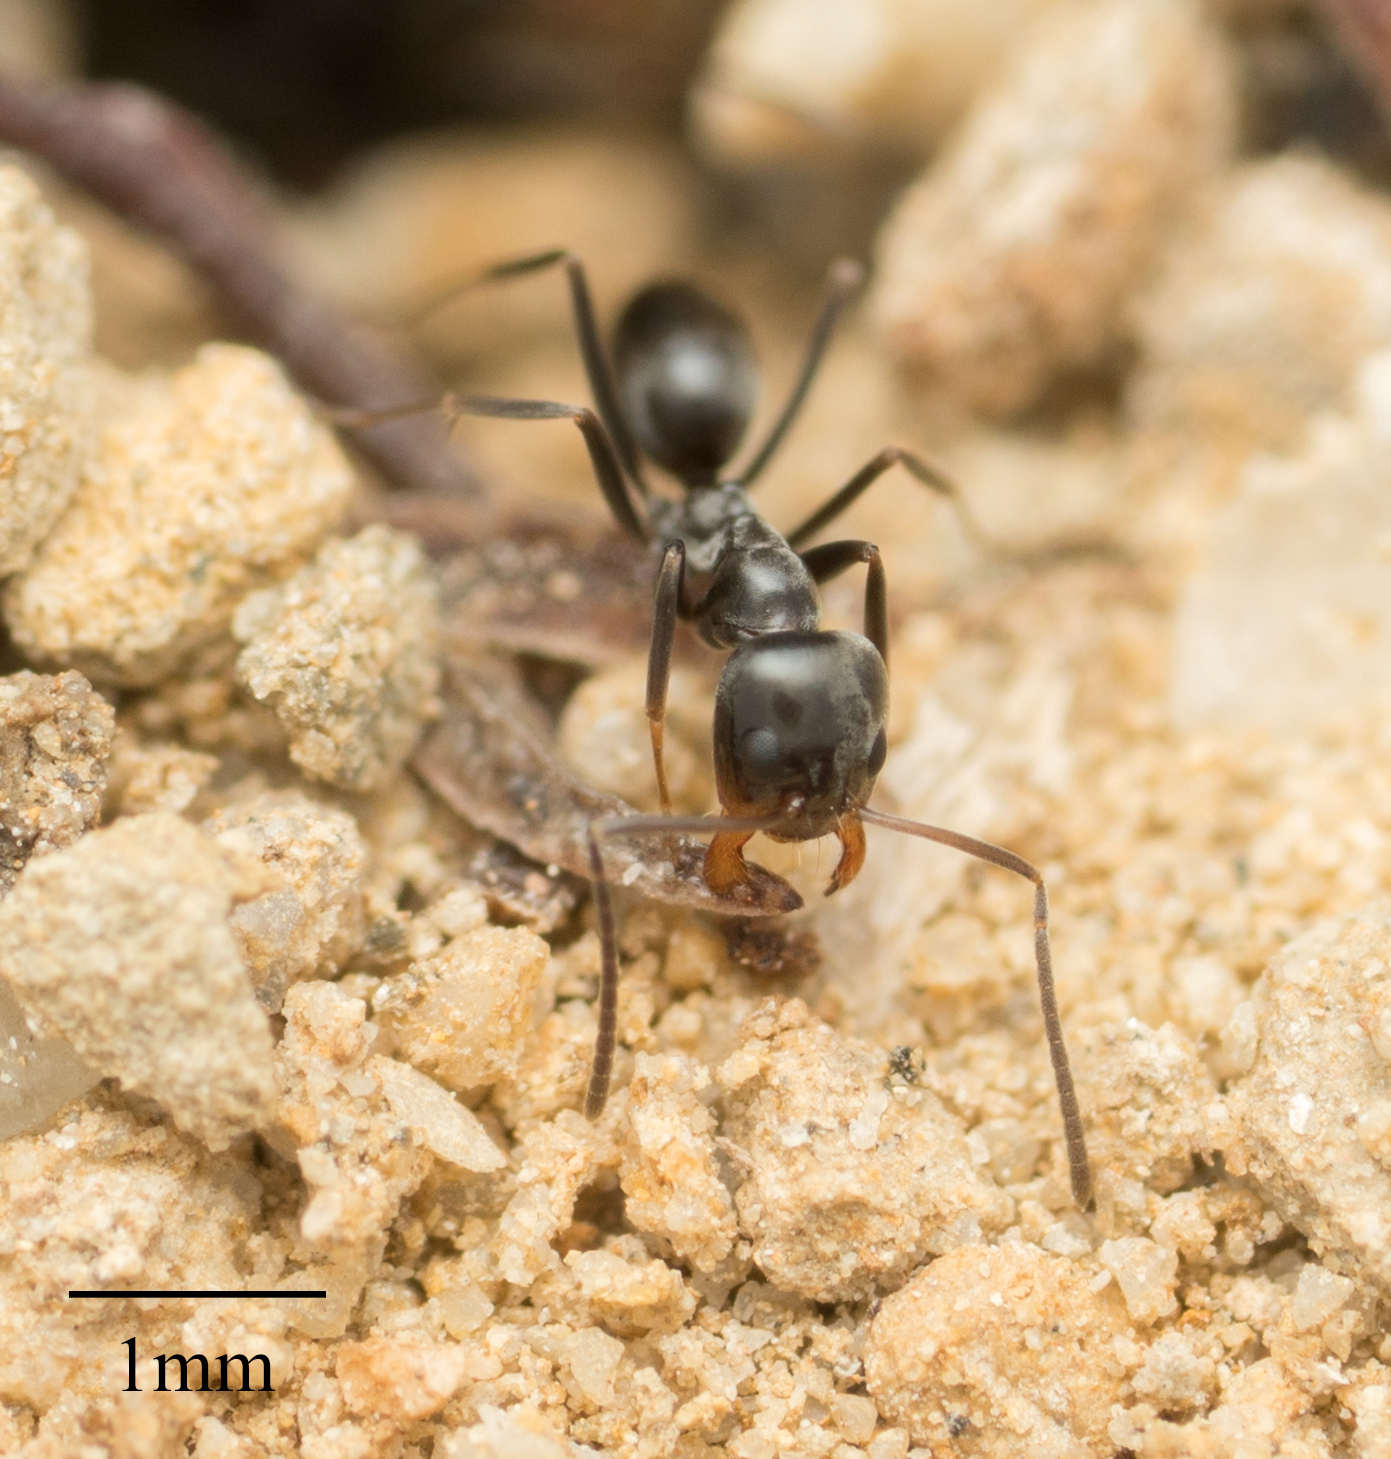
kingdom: Animalia
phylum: Arthropoda
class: Insecta
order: Hymenoptera
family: Formicidae
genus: Linepithema
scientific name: Linepithema humile
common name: Argentine ant
